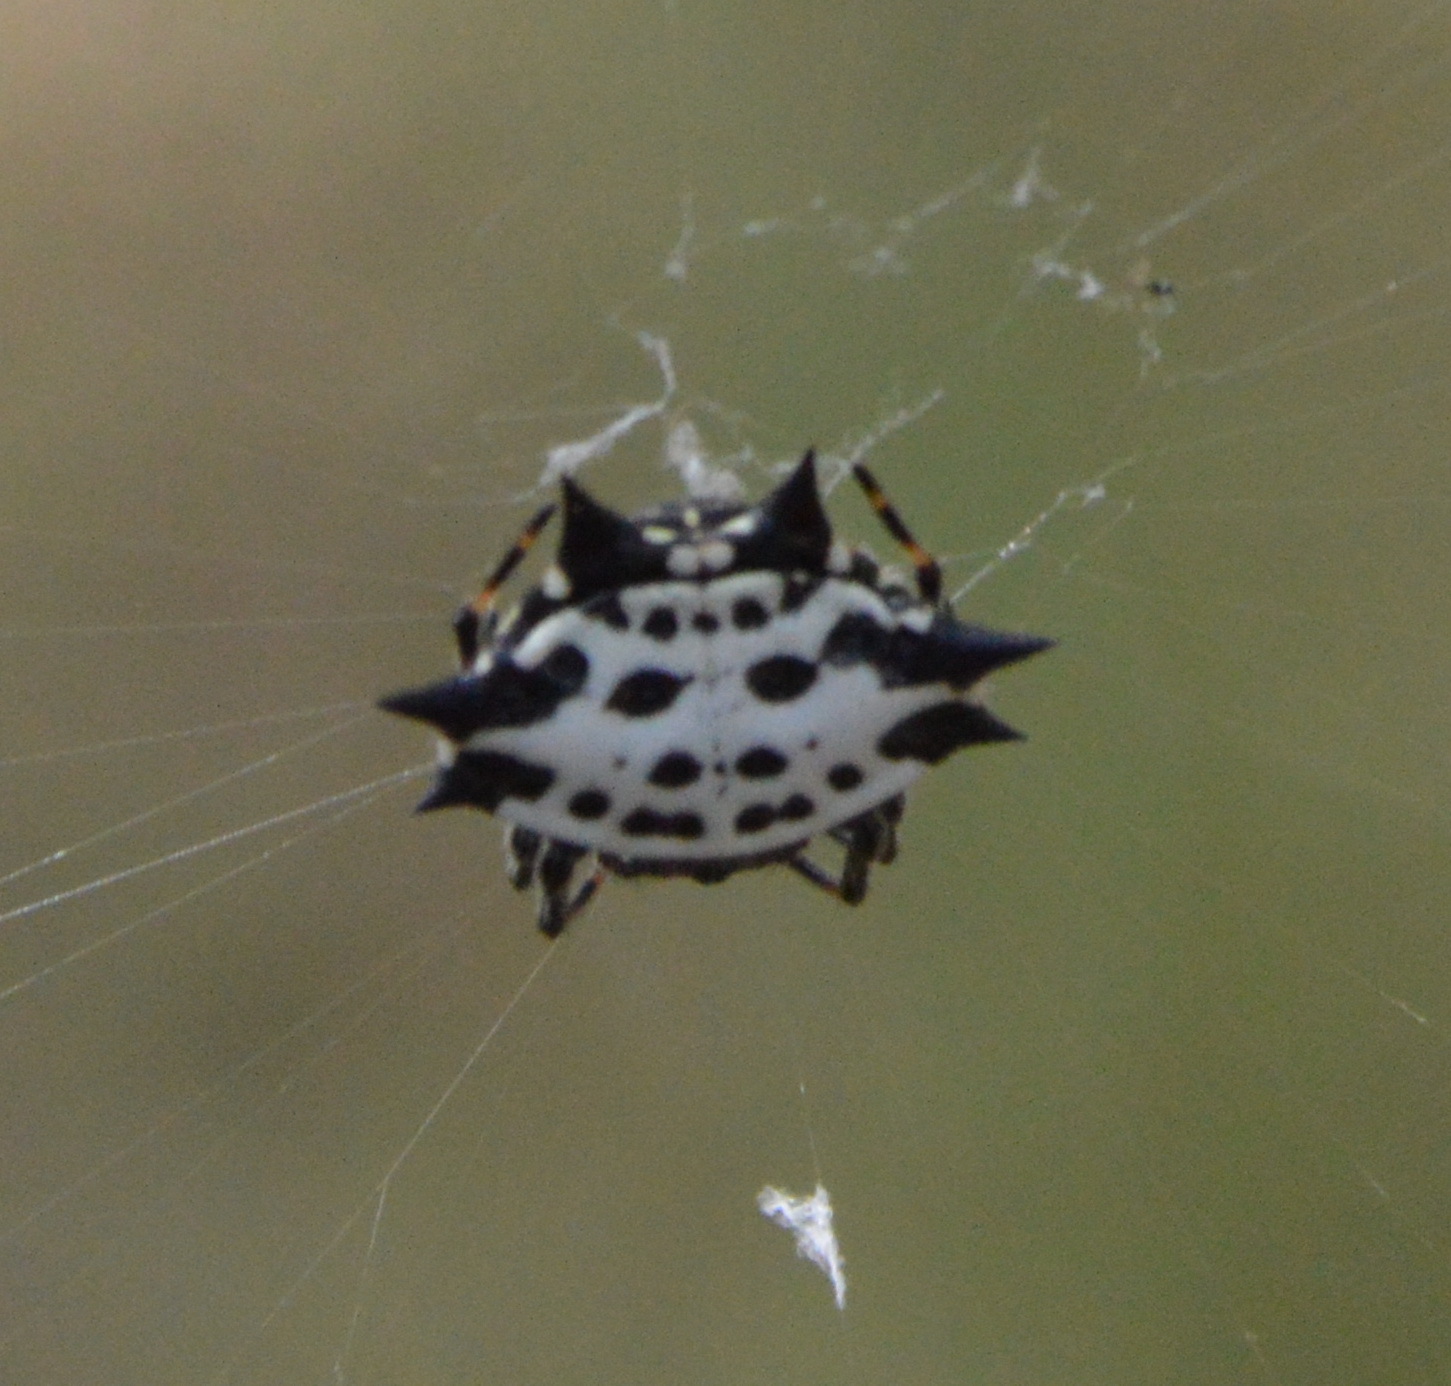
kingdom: Animalia
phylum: Arthropoda
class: Arachnida
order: Araneae
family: Araneidae
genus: Gasteracantha
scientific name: Gasteracantha cancriformis
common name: Orb weavers
